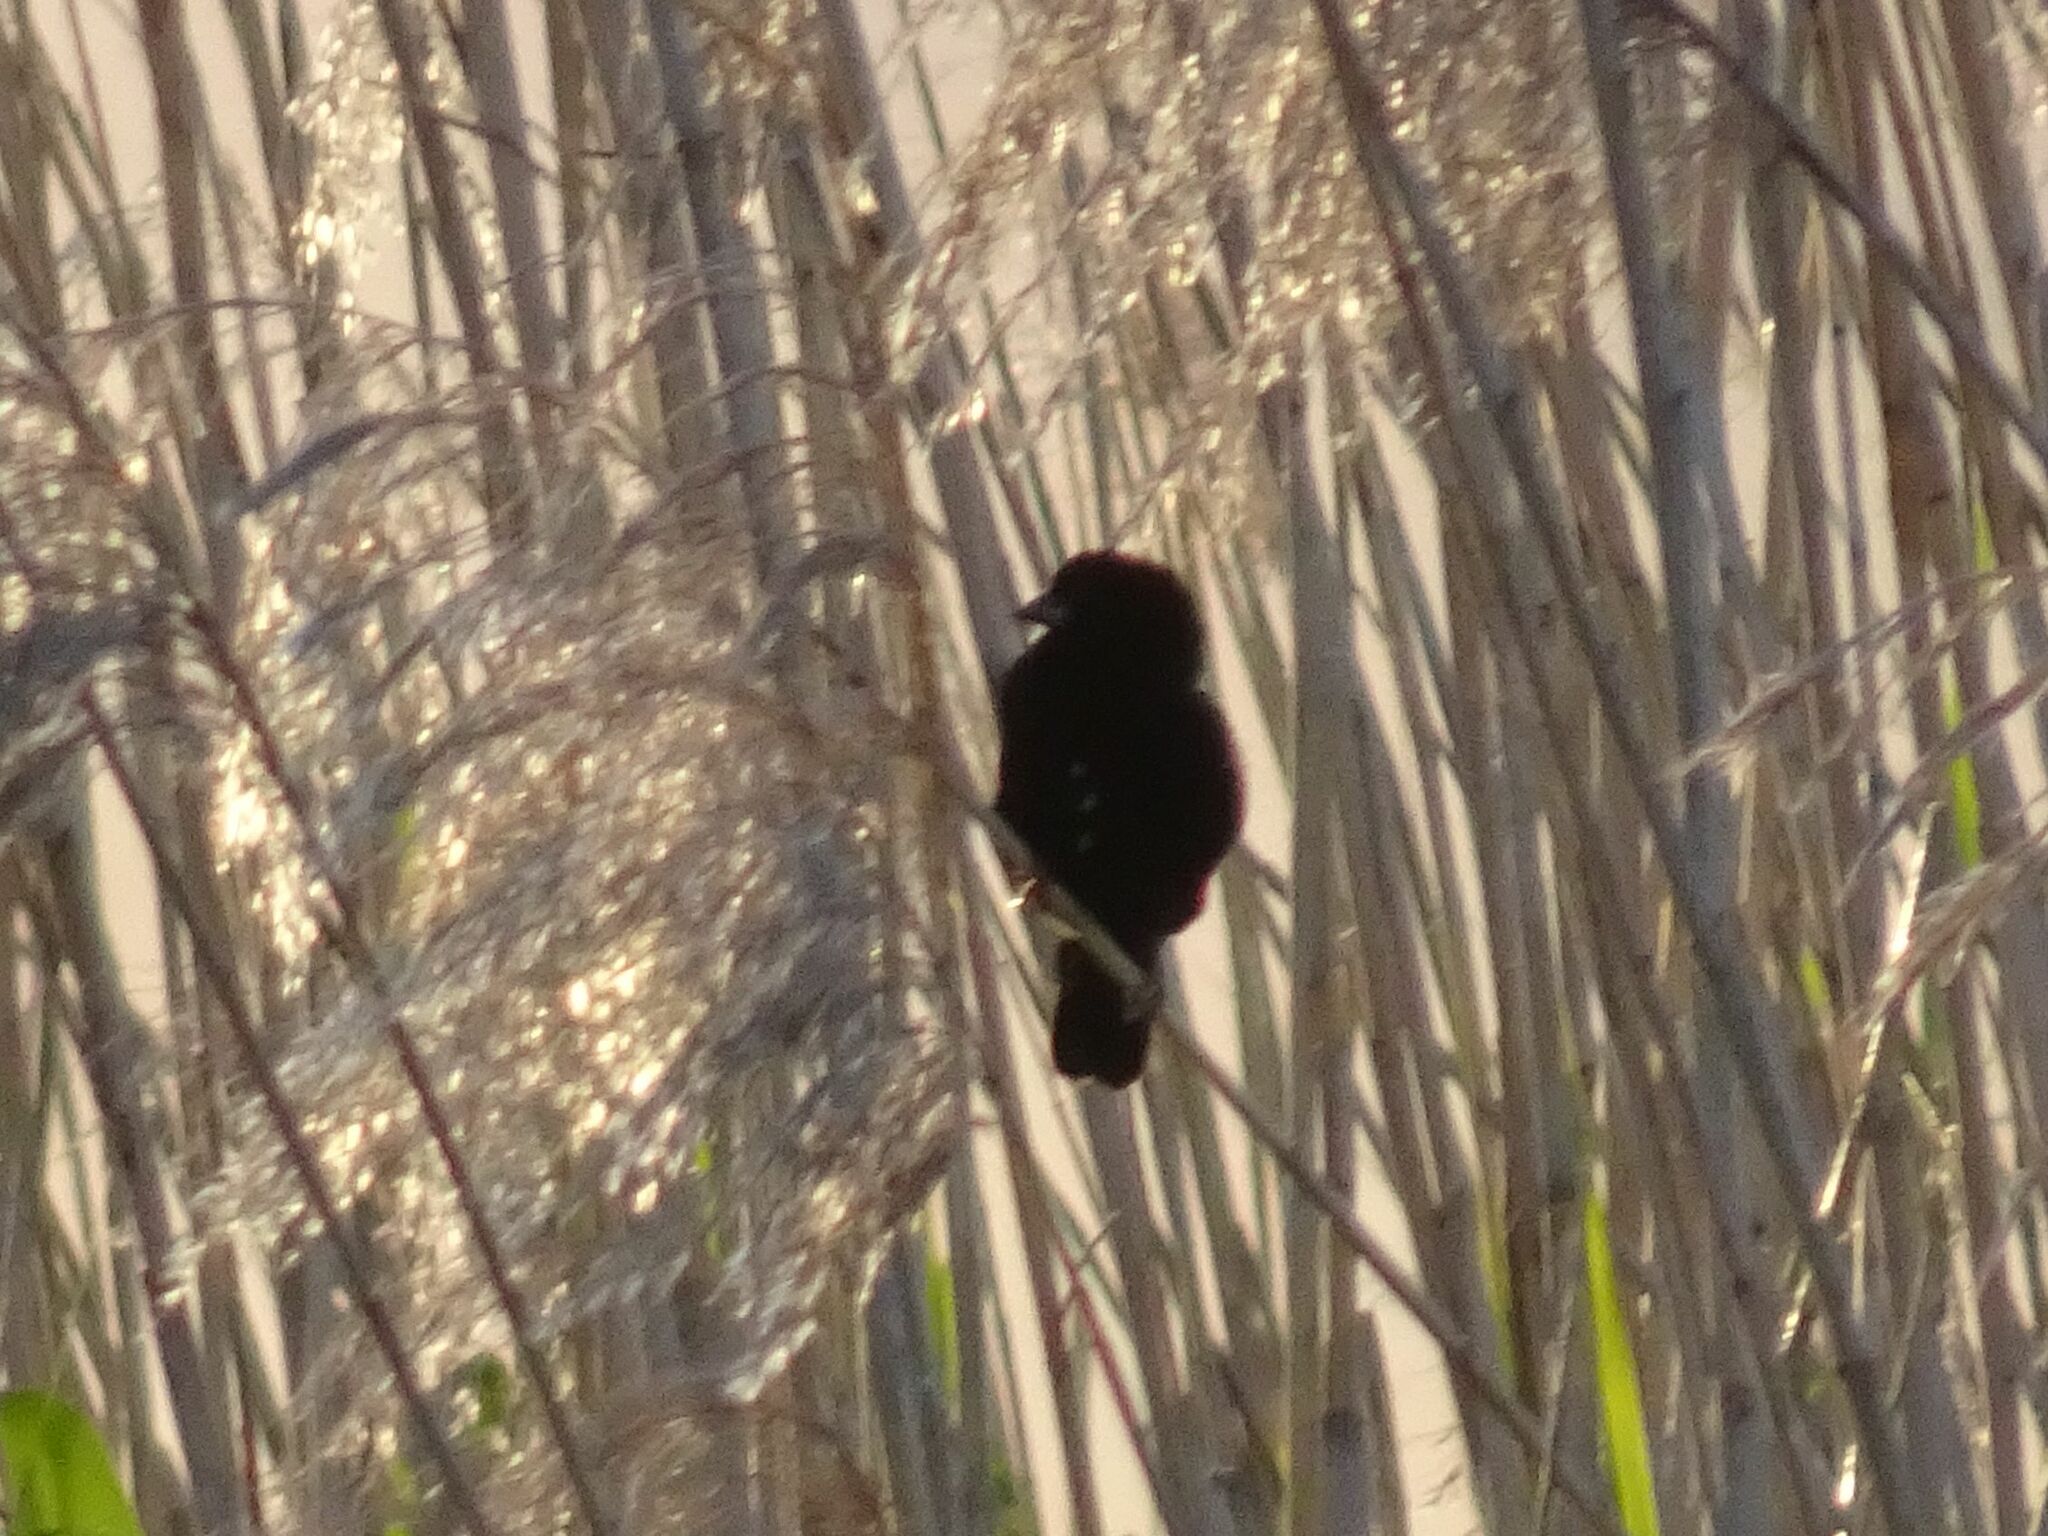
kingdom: Animalia
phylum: Chordata
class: Aves
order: Passeriformes
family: Ploceidae
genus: Euplectes
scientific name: Euplectes capensis
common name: Yellow bishop
